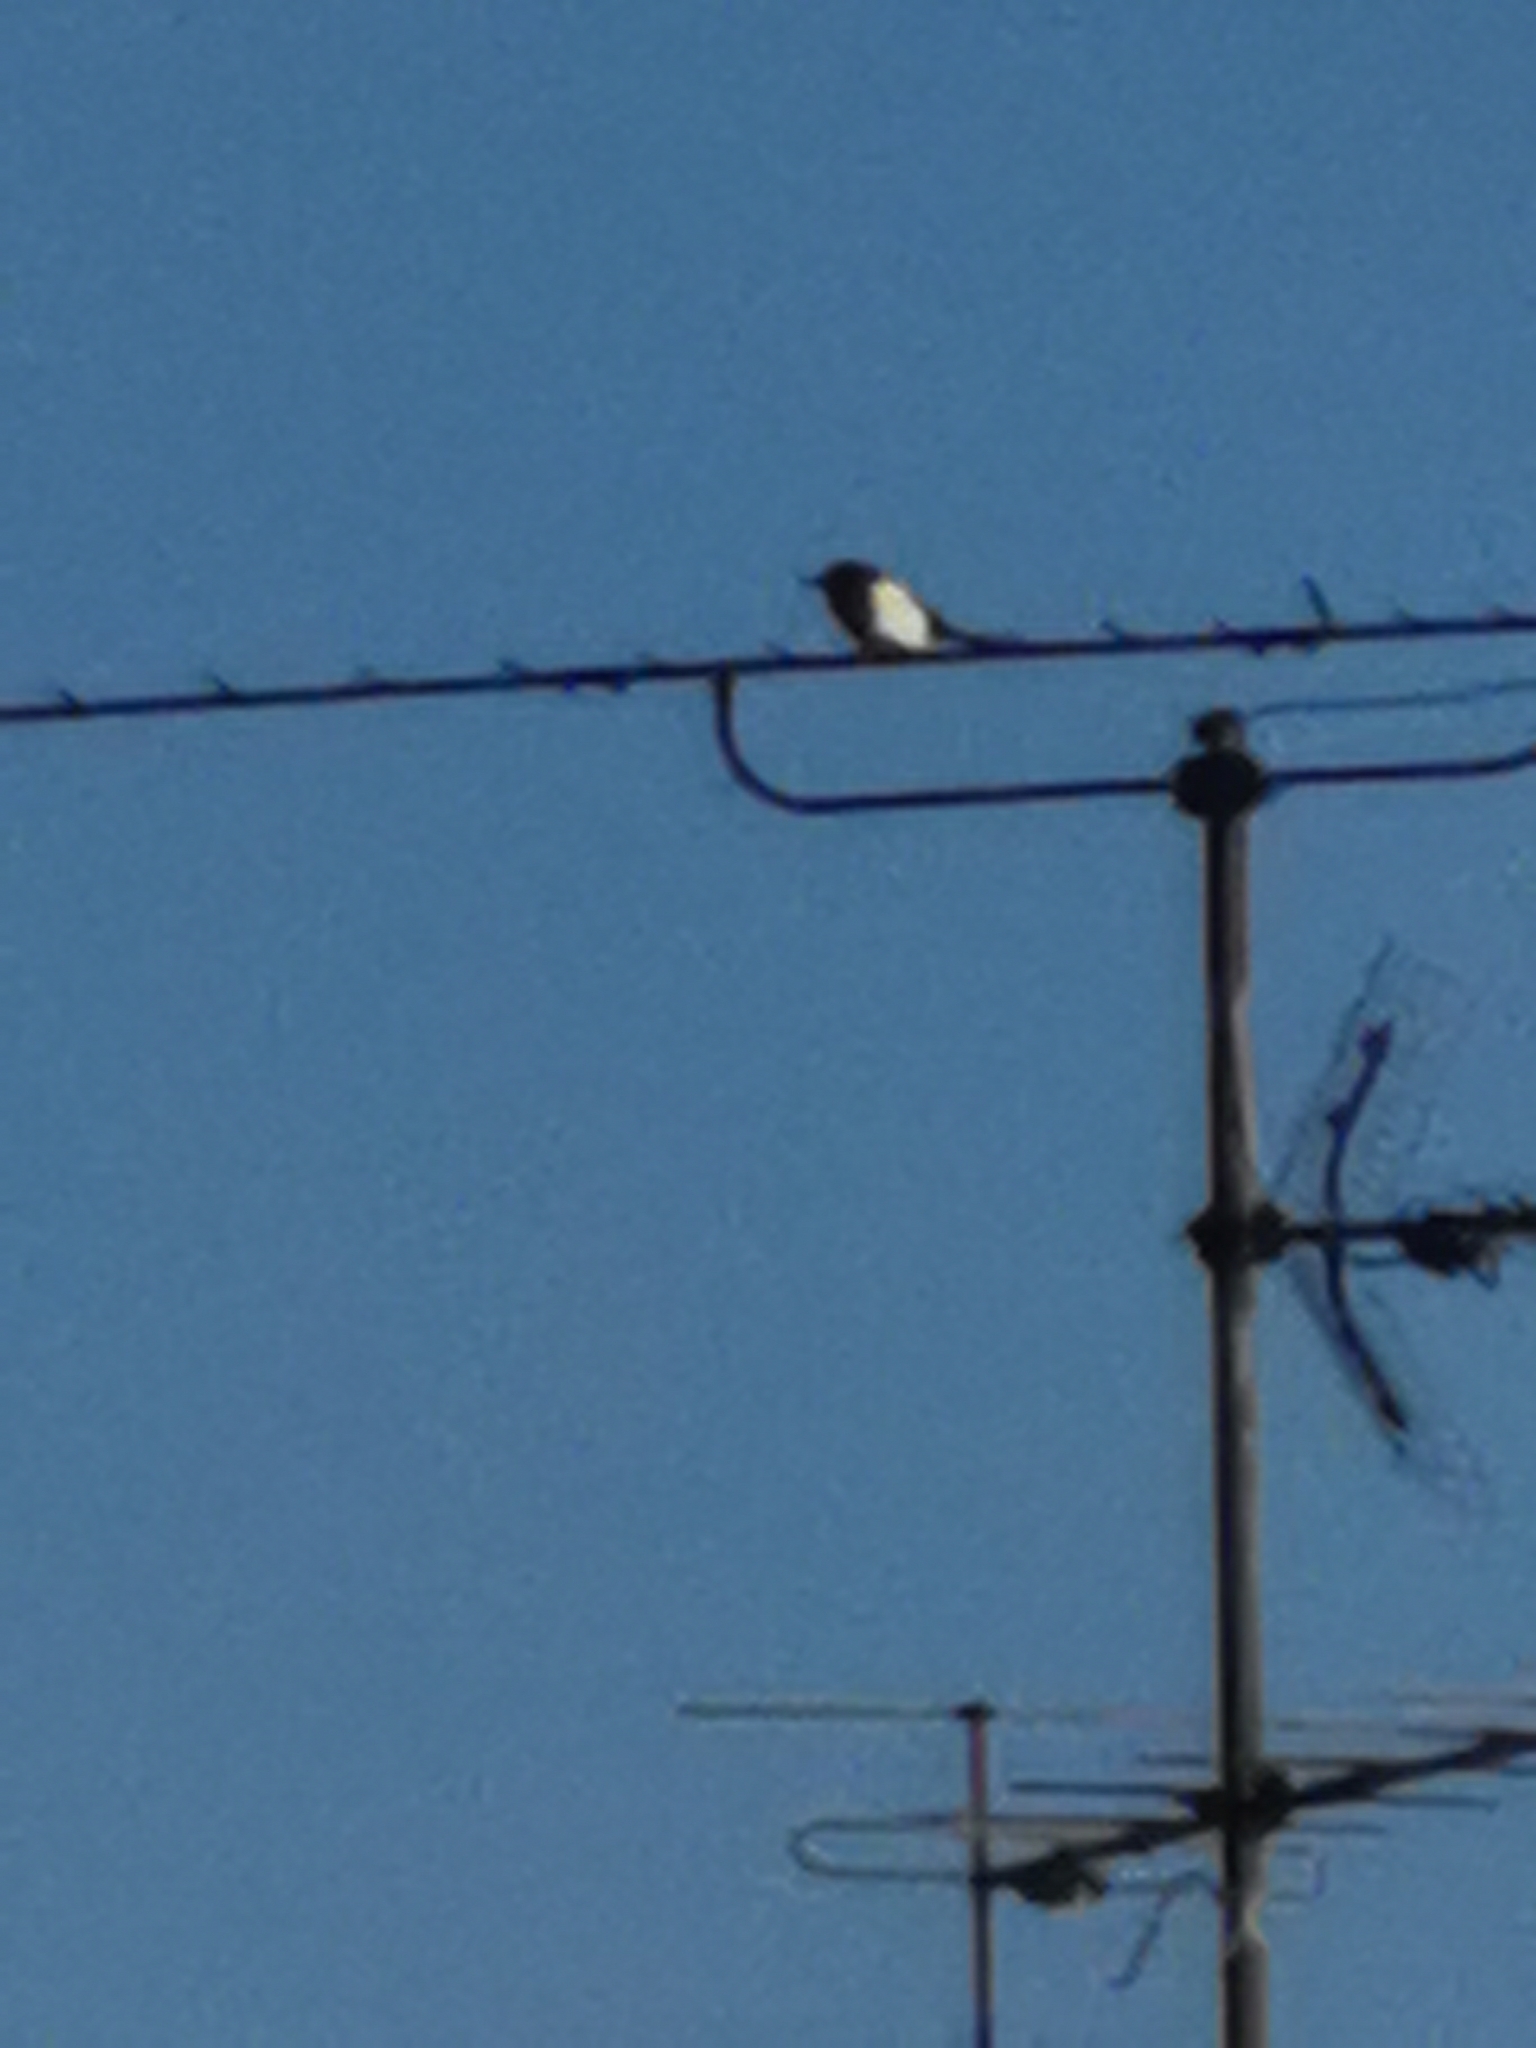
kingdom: Animalia
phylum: Chordata
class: Aves
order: Passeriformes
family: Corvidae
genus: Pica
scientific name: Pica pica
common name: Eurasian magpie
